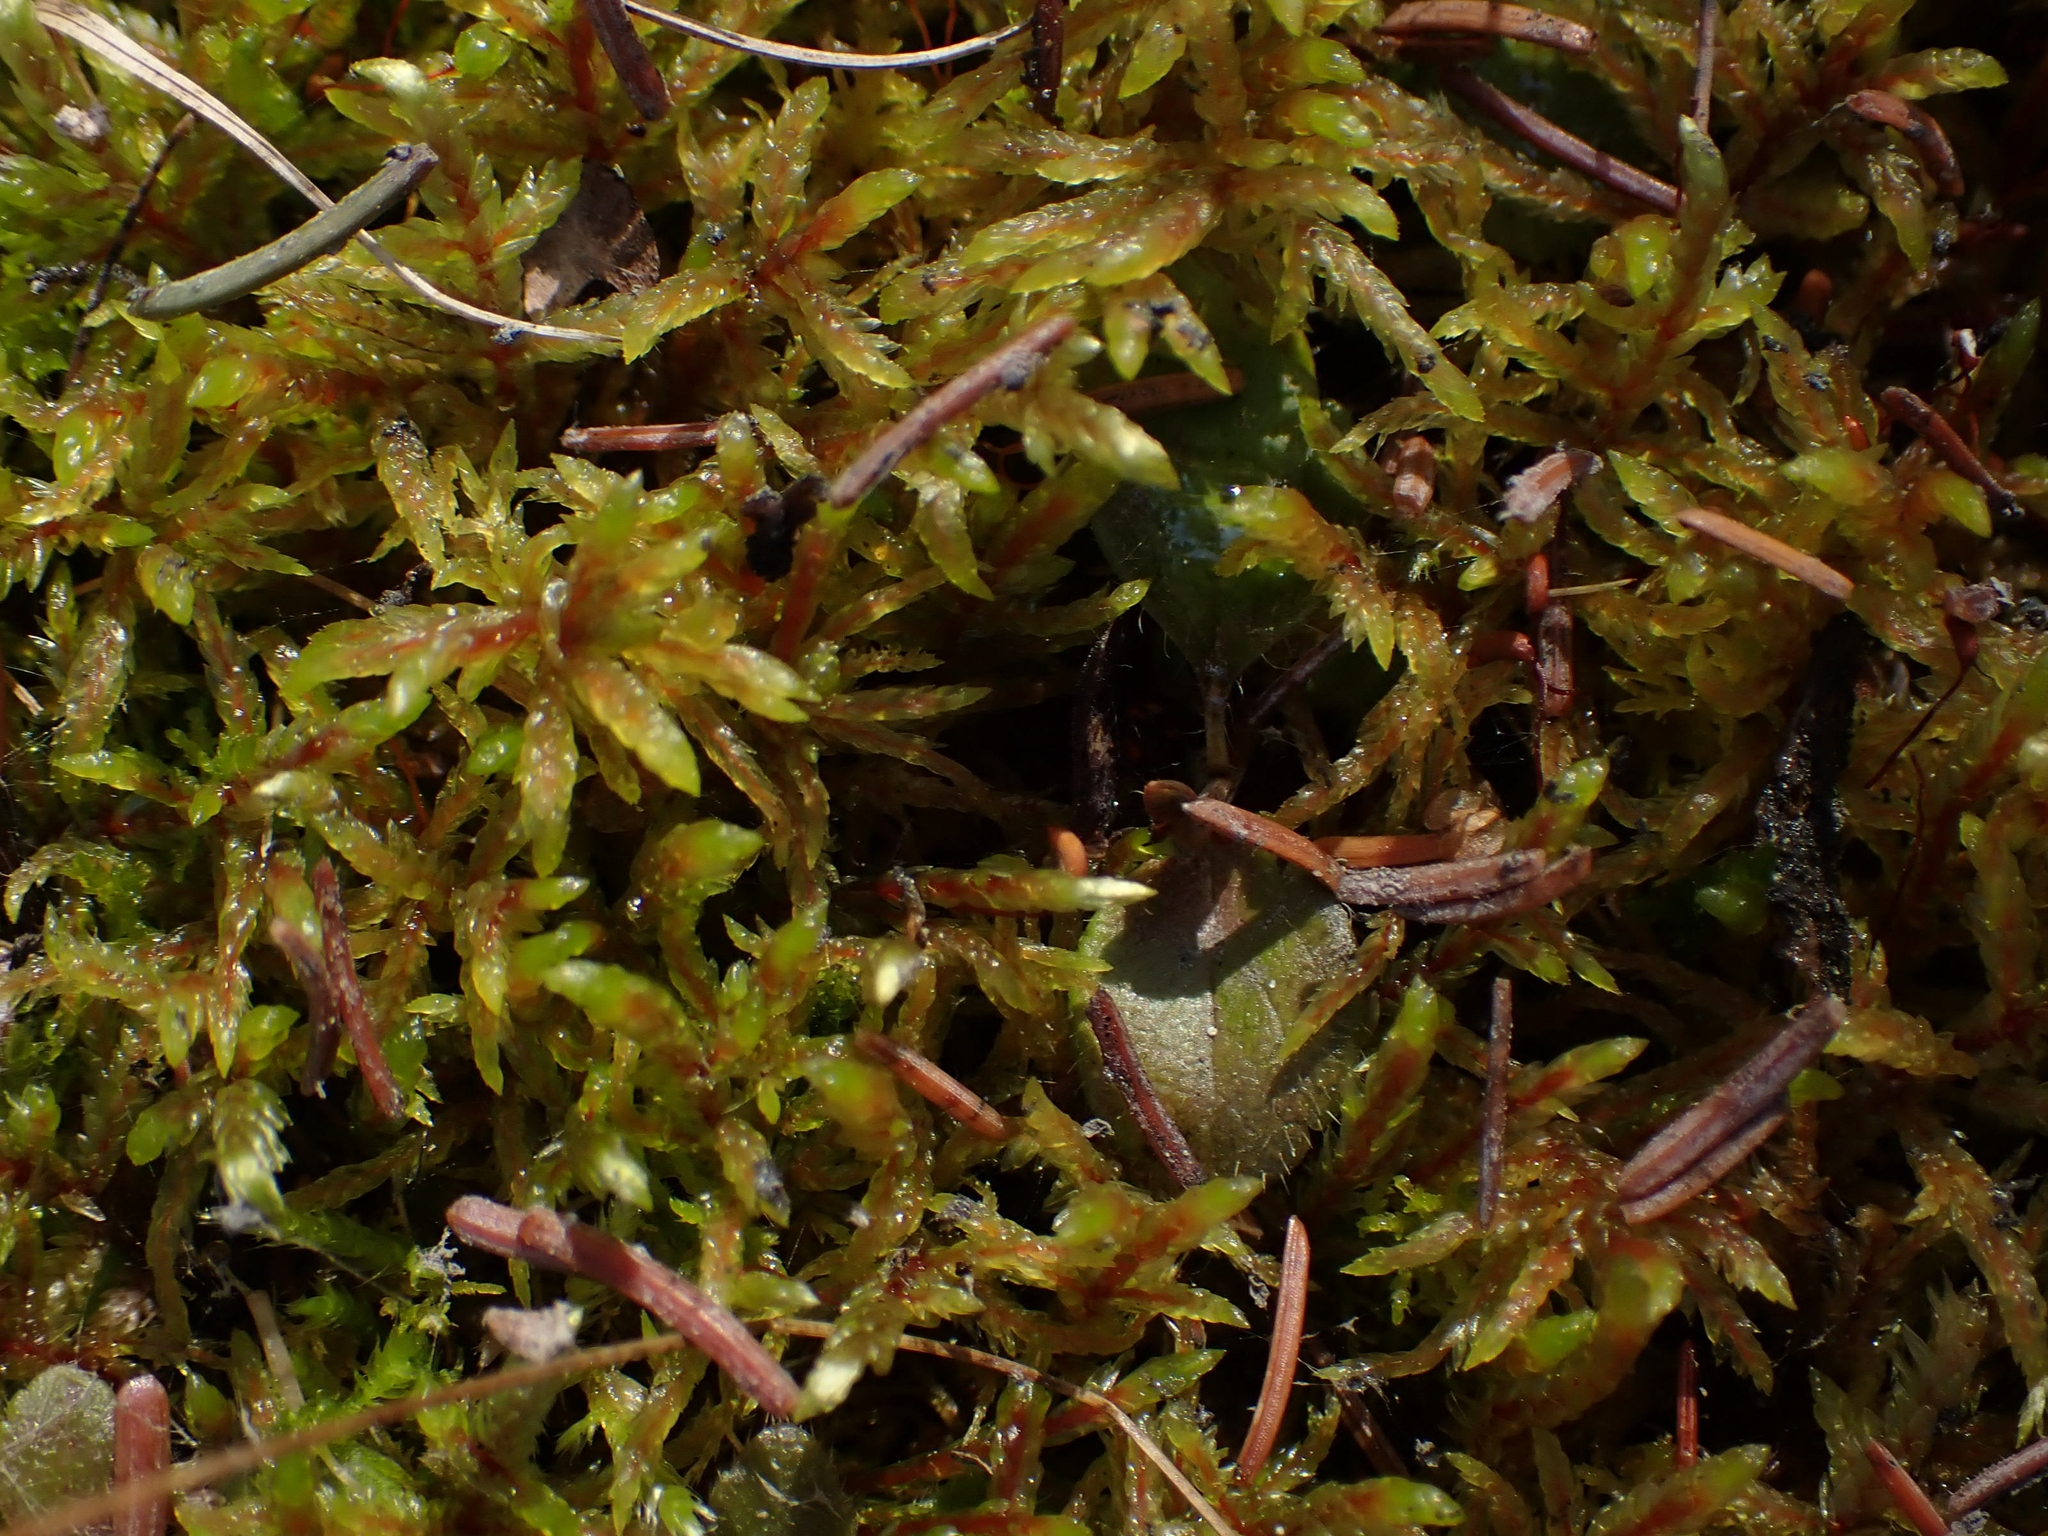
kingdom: Plantae
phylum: Bryophyta
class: Bryopsida
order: Hypnales
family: Hylocomiaceae
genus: Pleurozium
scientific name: Pleurozium schreberi
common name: Red-stemmed feather moss
